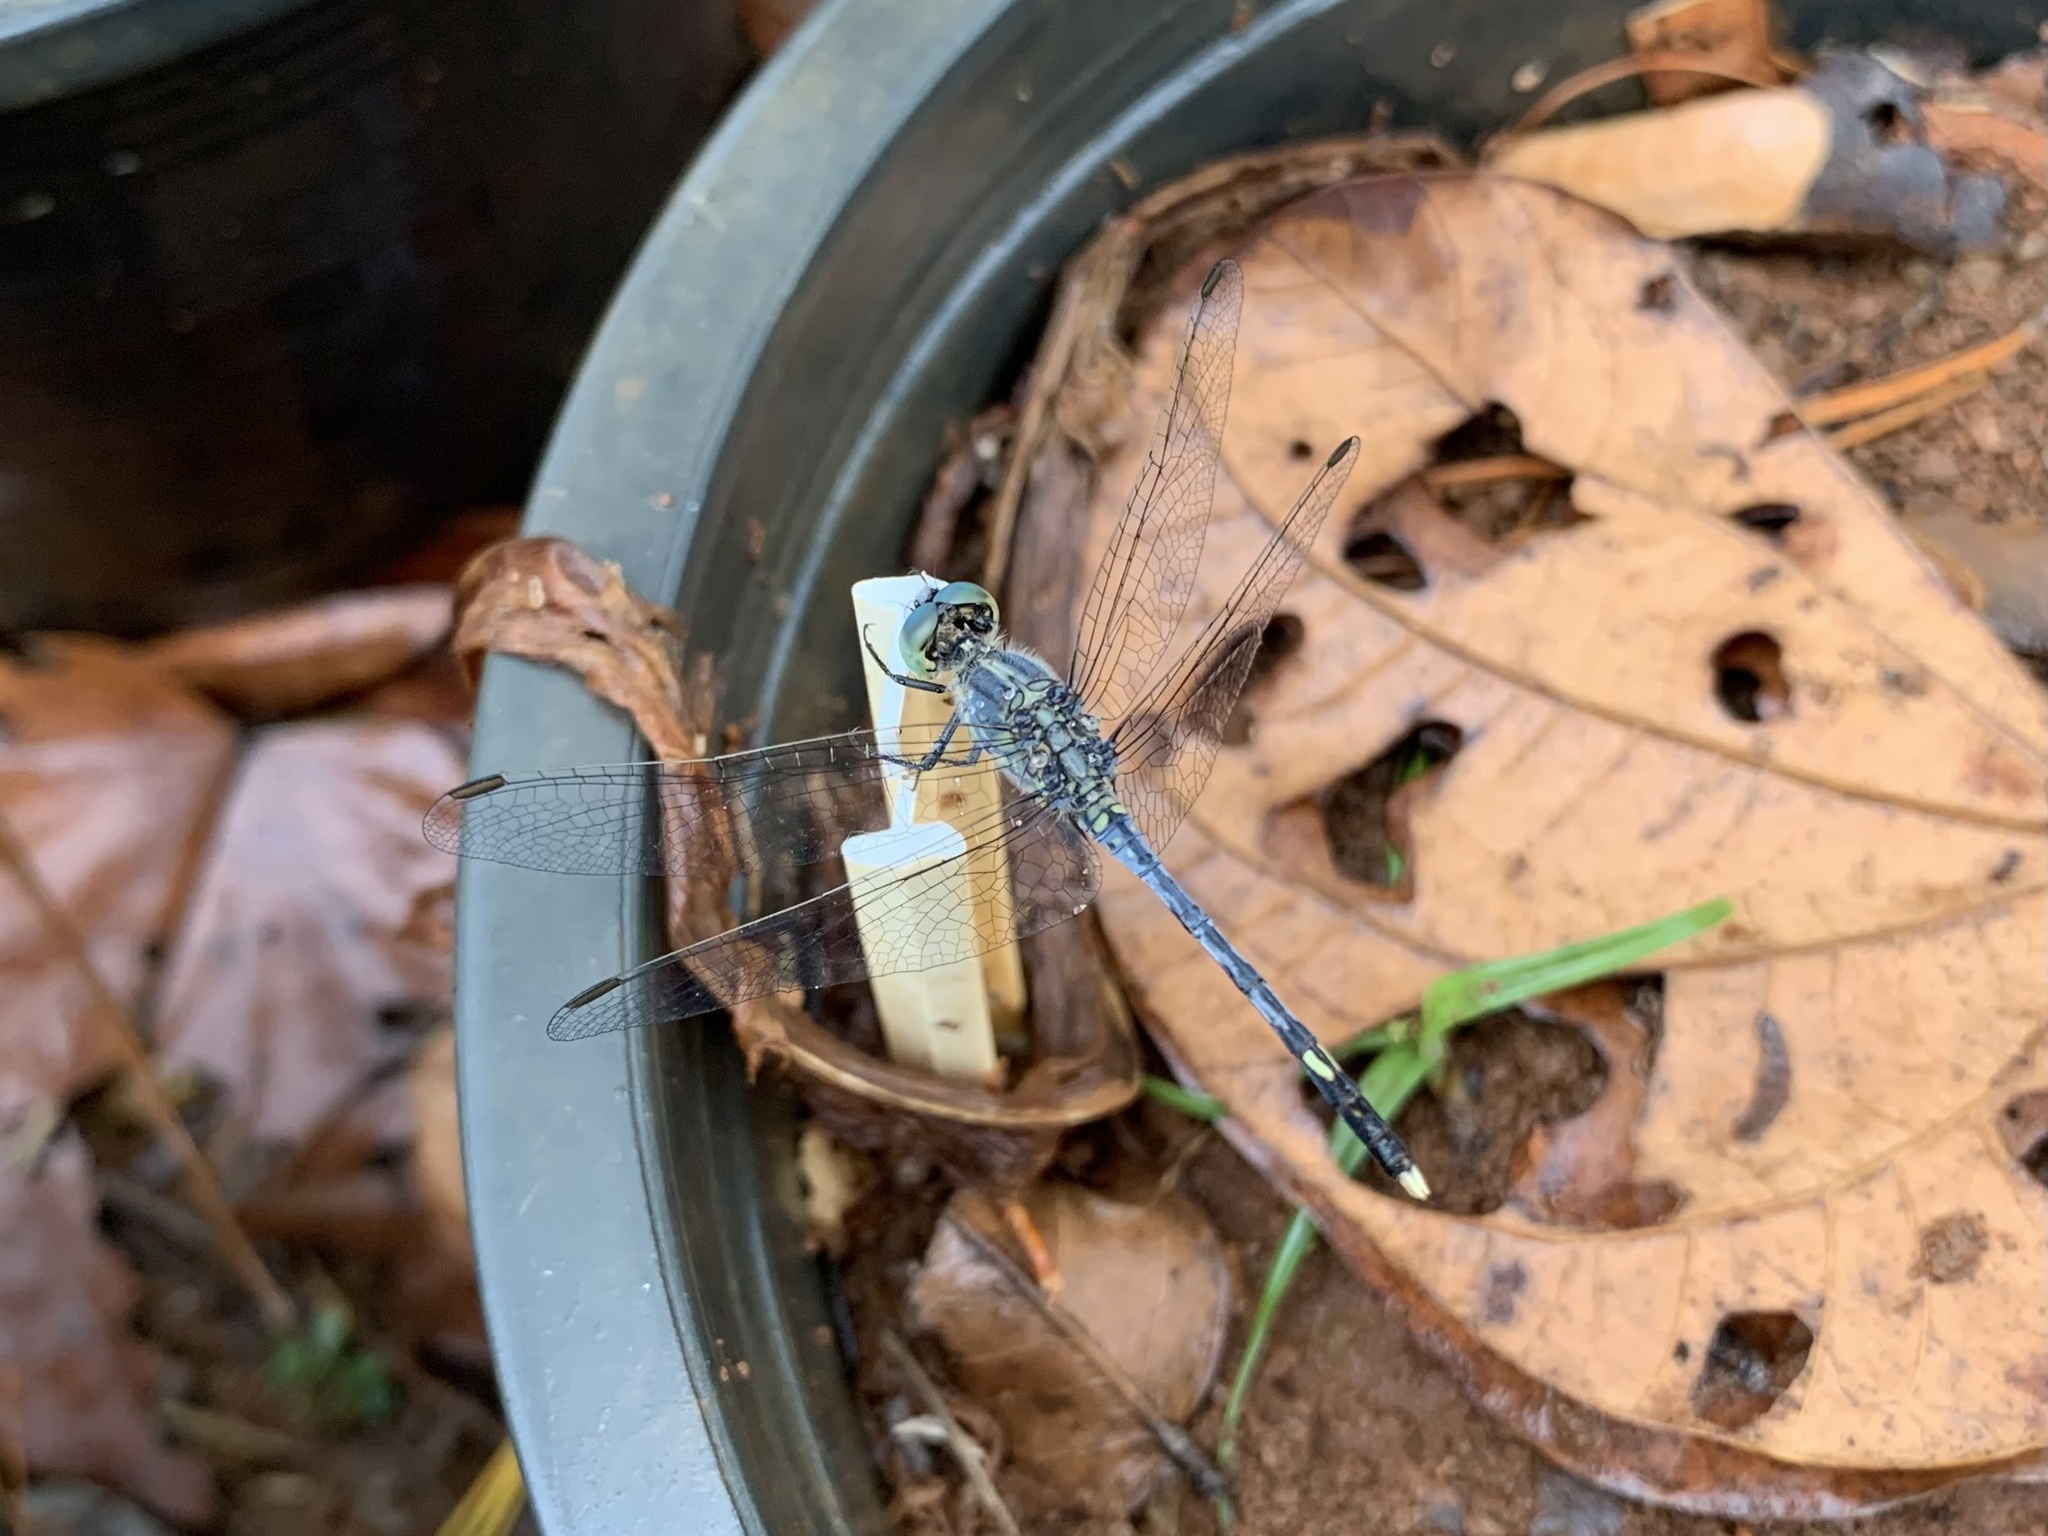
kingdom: Animalia
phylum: Arthropoda
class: Insecta
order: Odonata
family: Libellulidae
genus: Diplacodes
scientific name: Diplacodes trivialis
